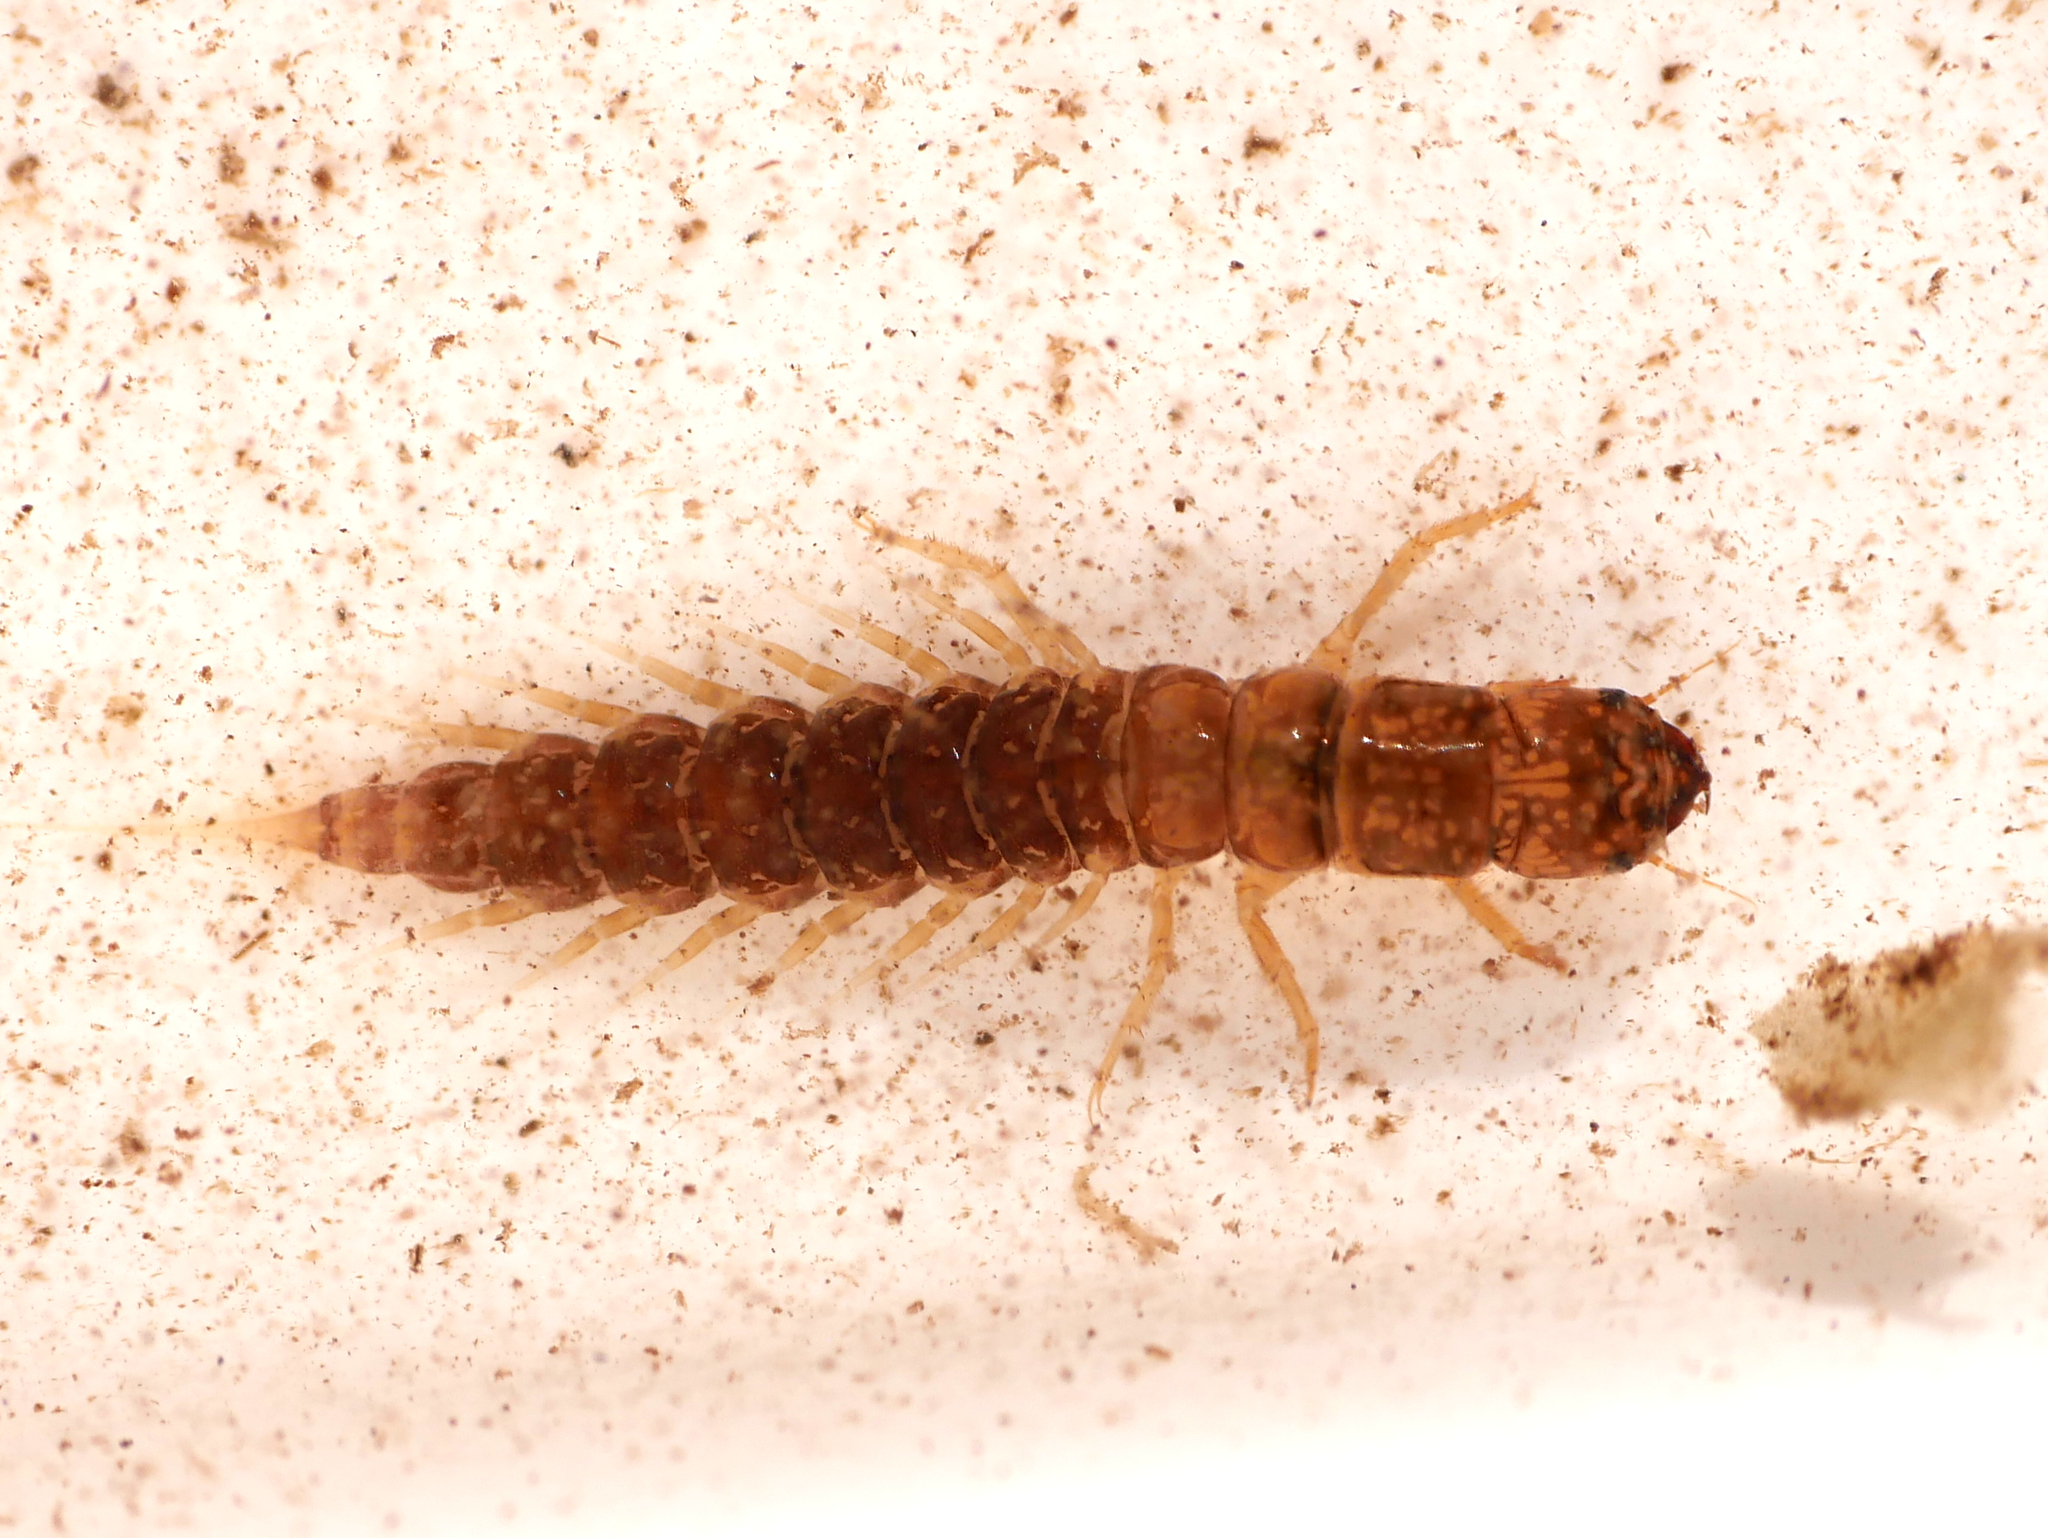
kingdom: Animalia
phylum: Arthropoda
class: Insecta
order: Megaloptera
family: Sialidae
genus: Sialis
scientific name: Sialis fuliginosa
